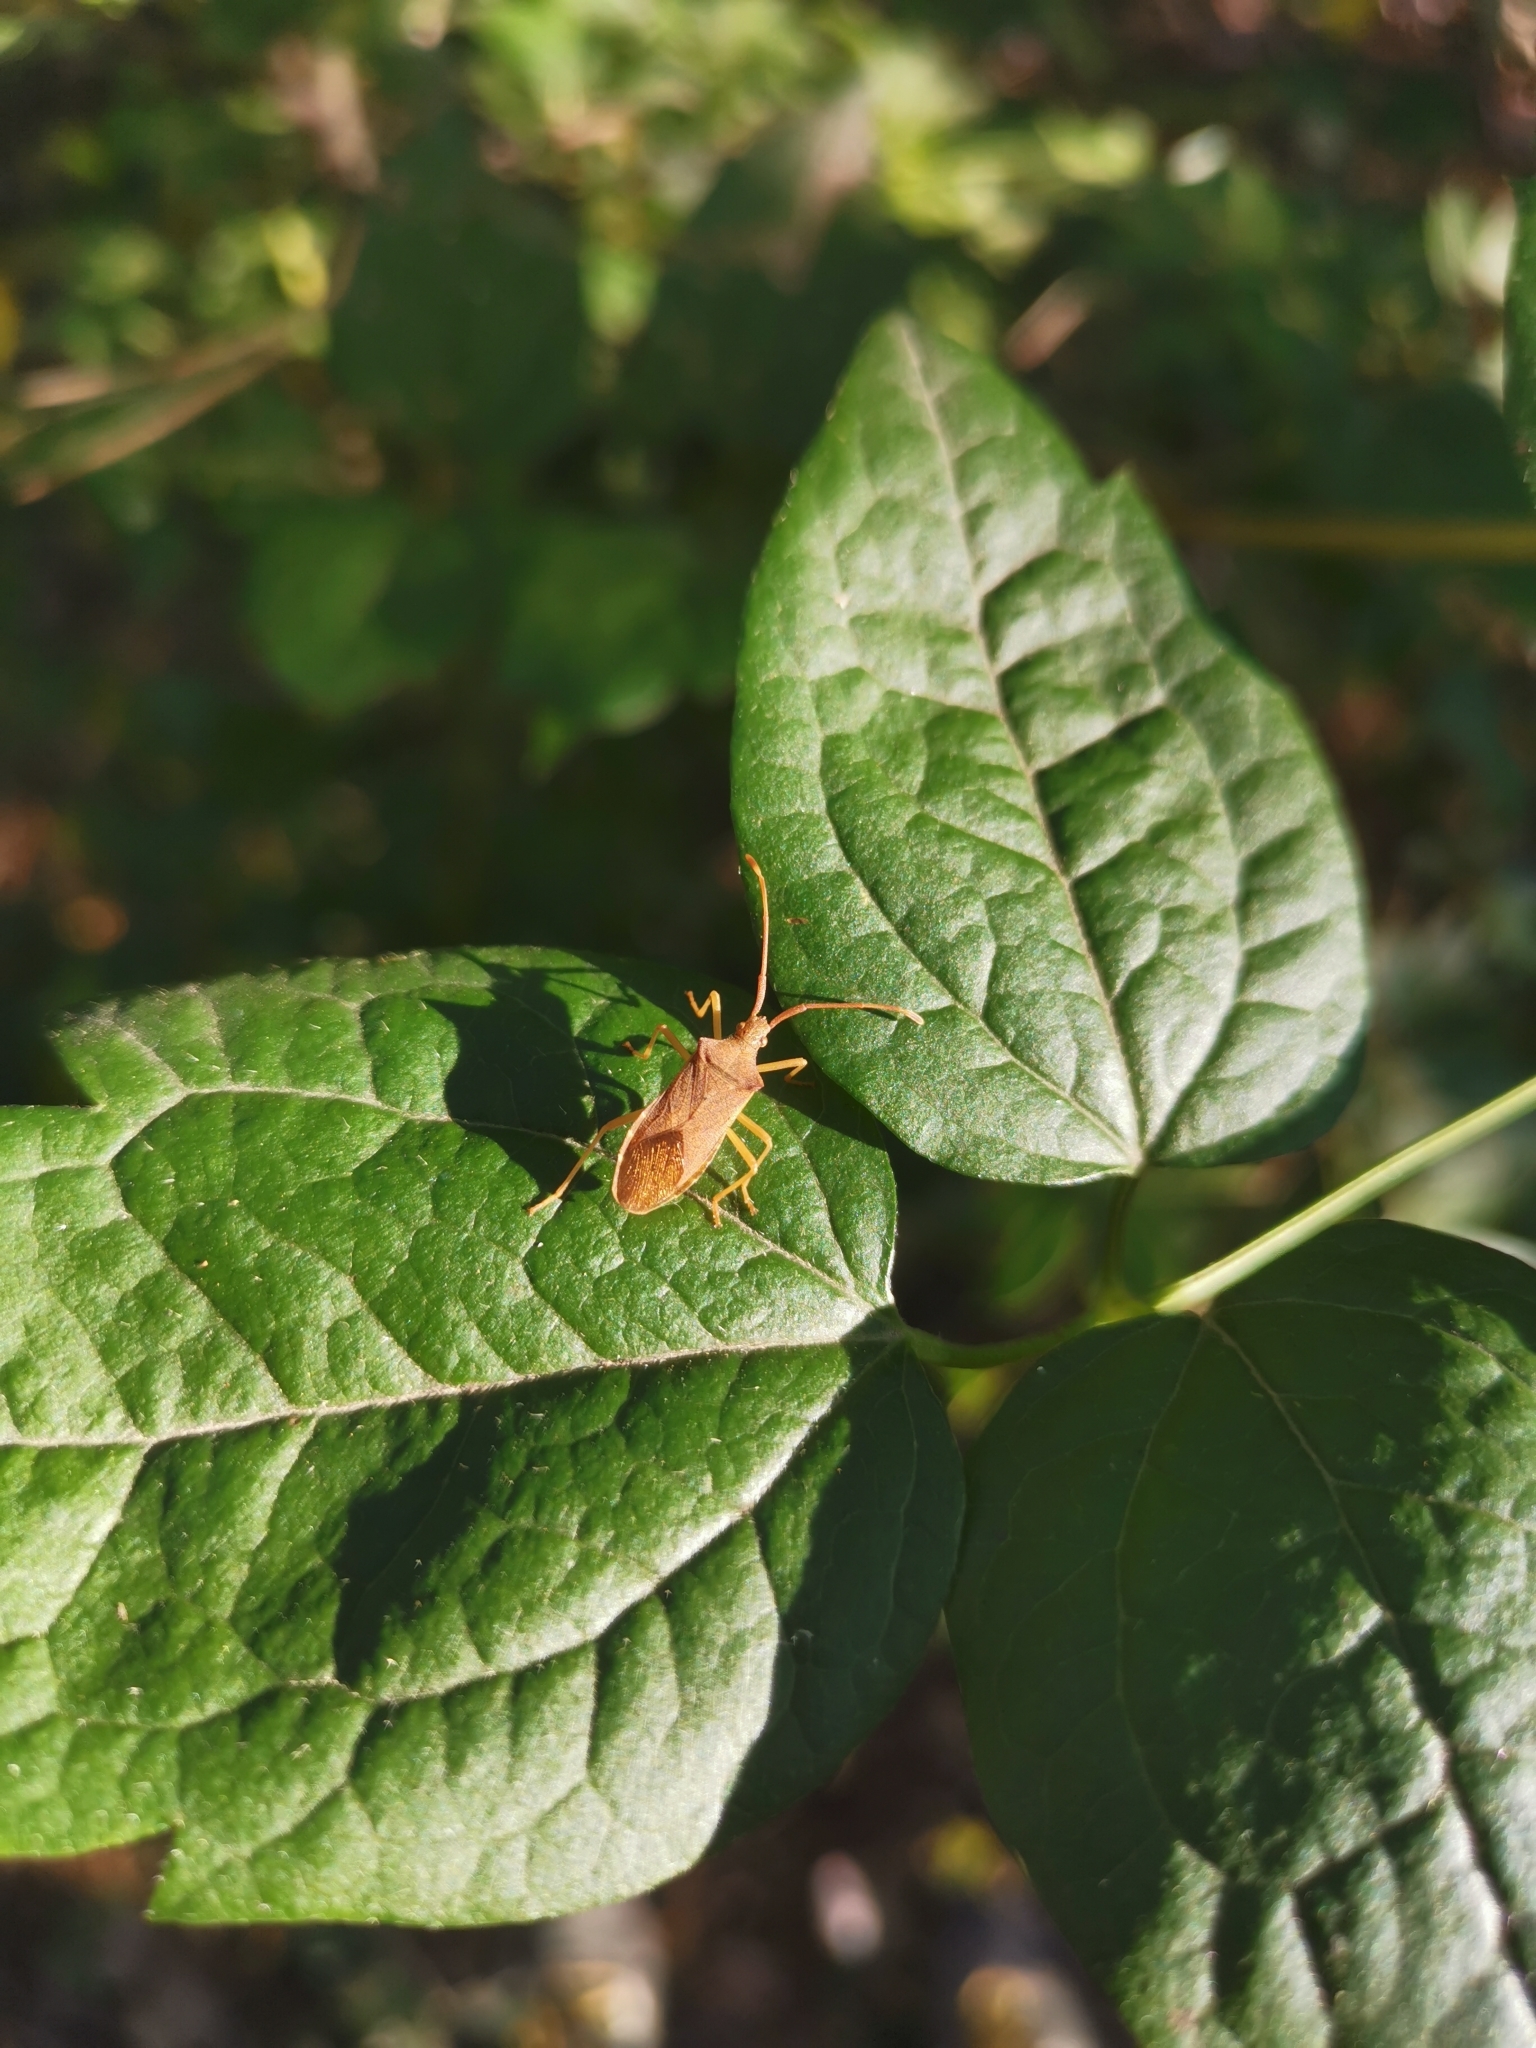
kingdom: Animalia
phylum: Arthropoda
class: Insecta
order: Hemiptera
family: Coreidae
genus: Gonocerus
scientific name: Gonocerus acuteangulatus
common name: Box bug
